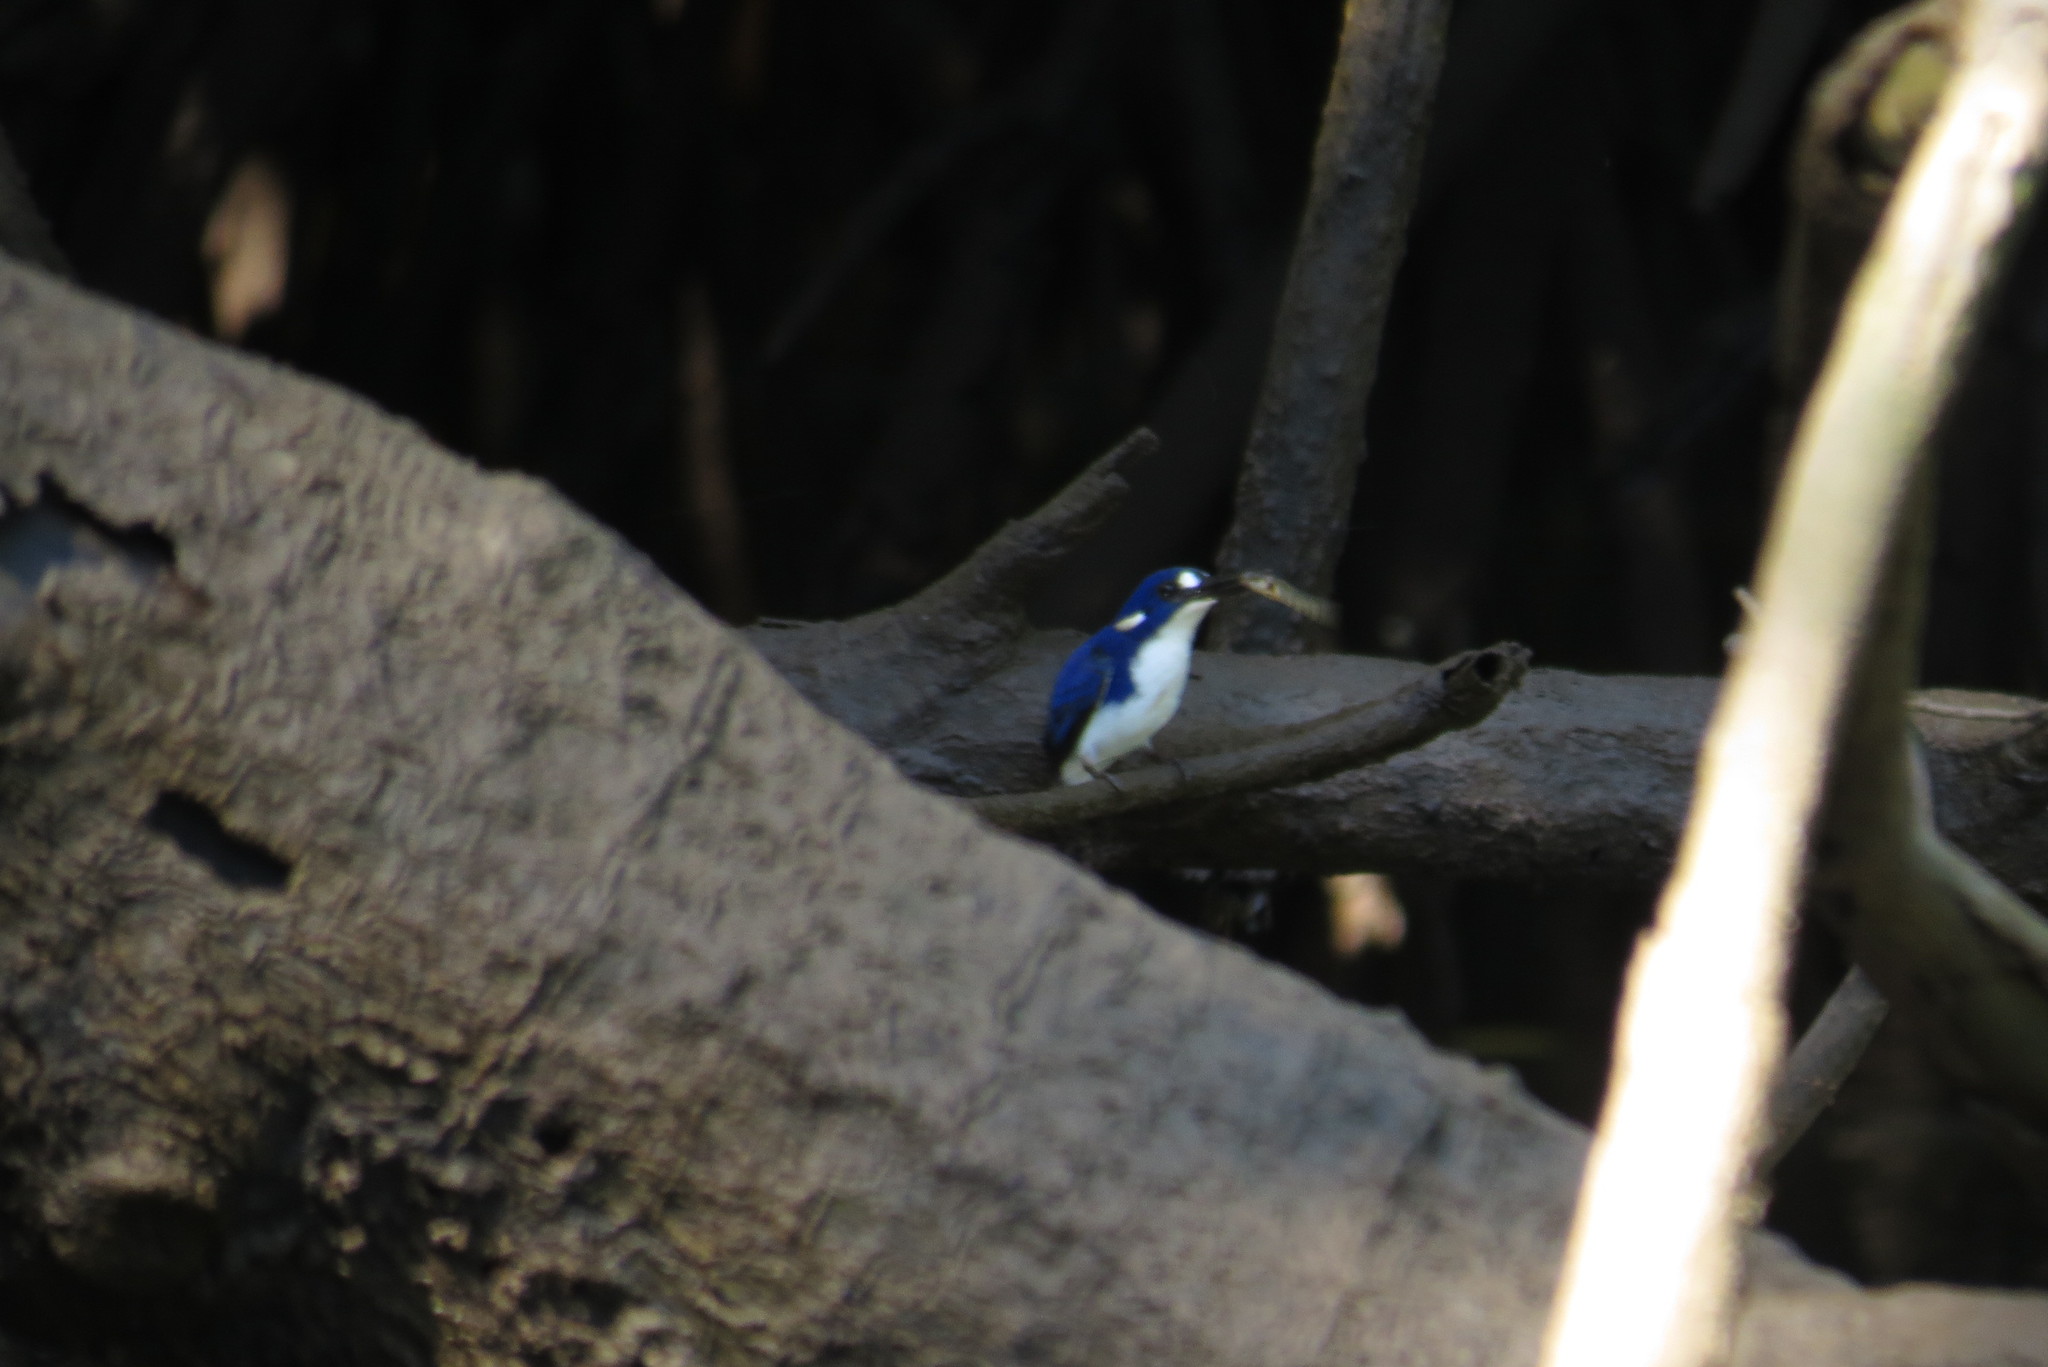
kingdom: Animalia
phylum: Chordata
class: Aves
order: Coraciiformes
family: Alcedinidae
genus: Ceyx
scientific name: Ceyx pusillus
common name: Little kingfisher
